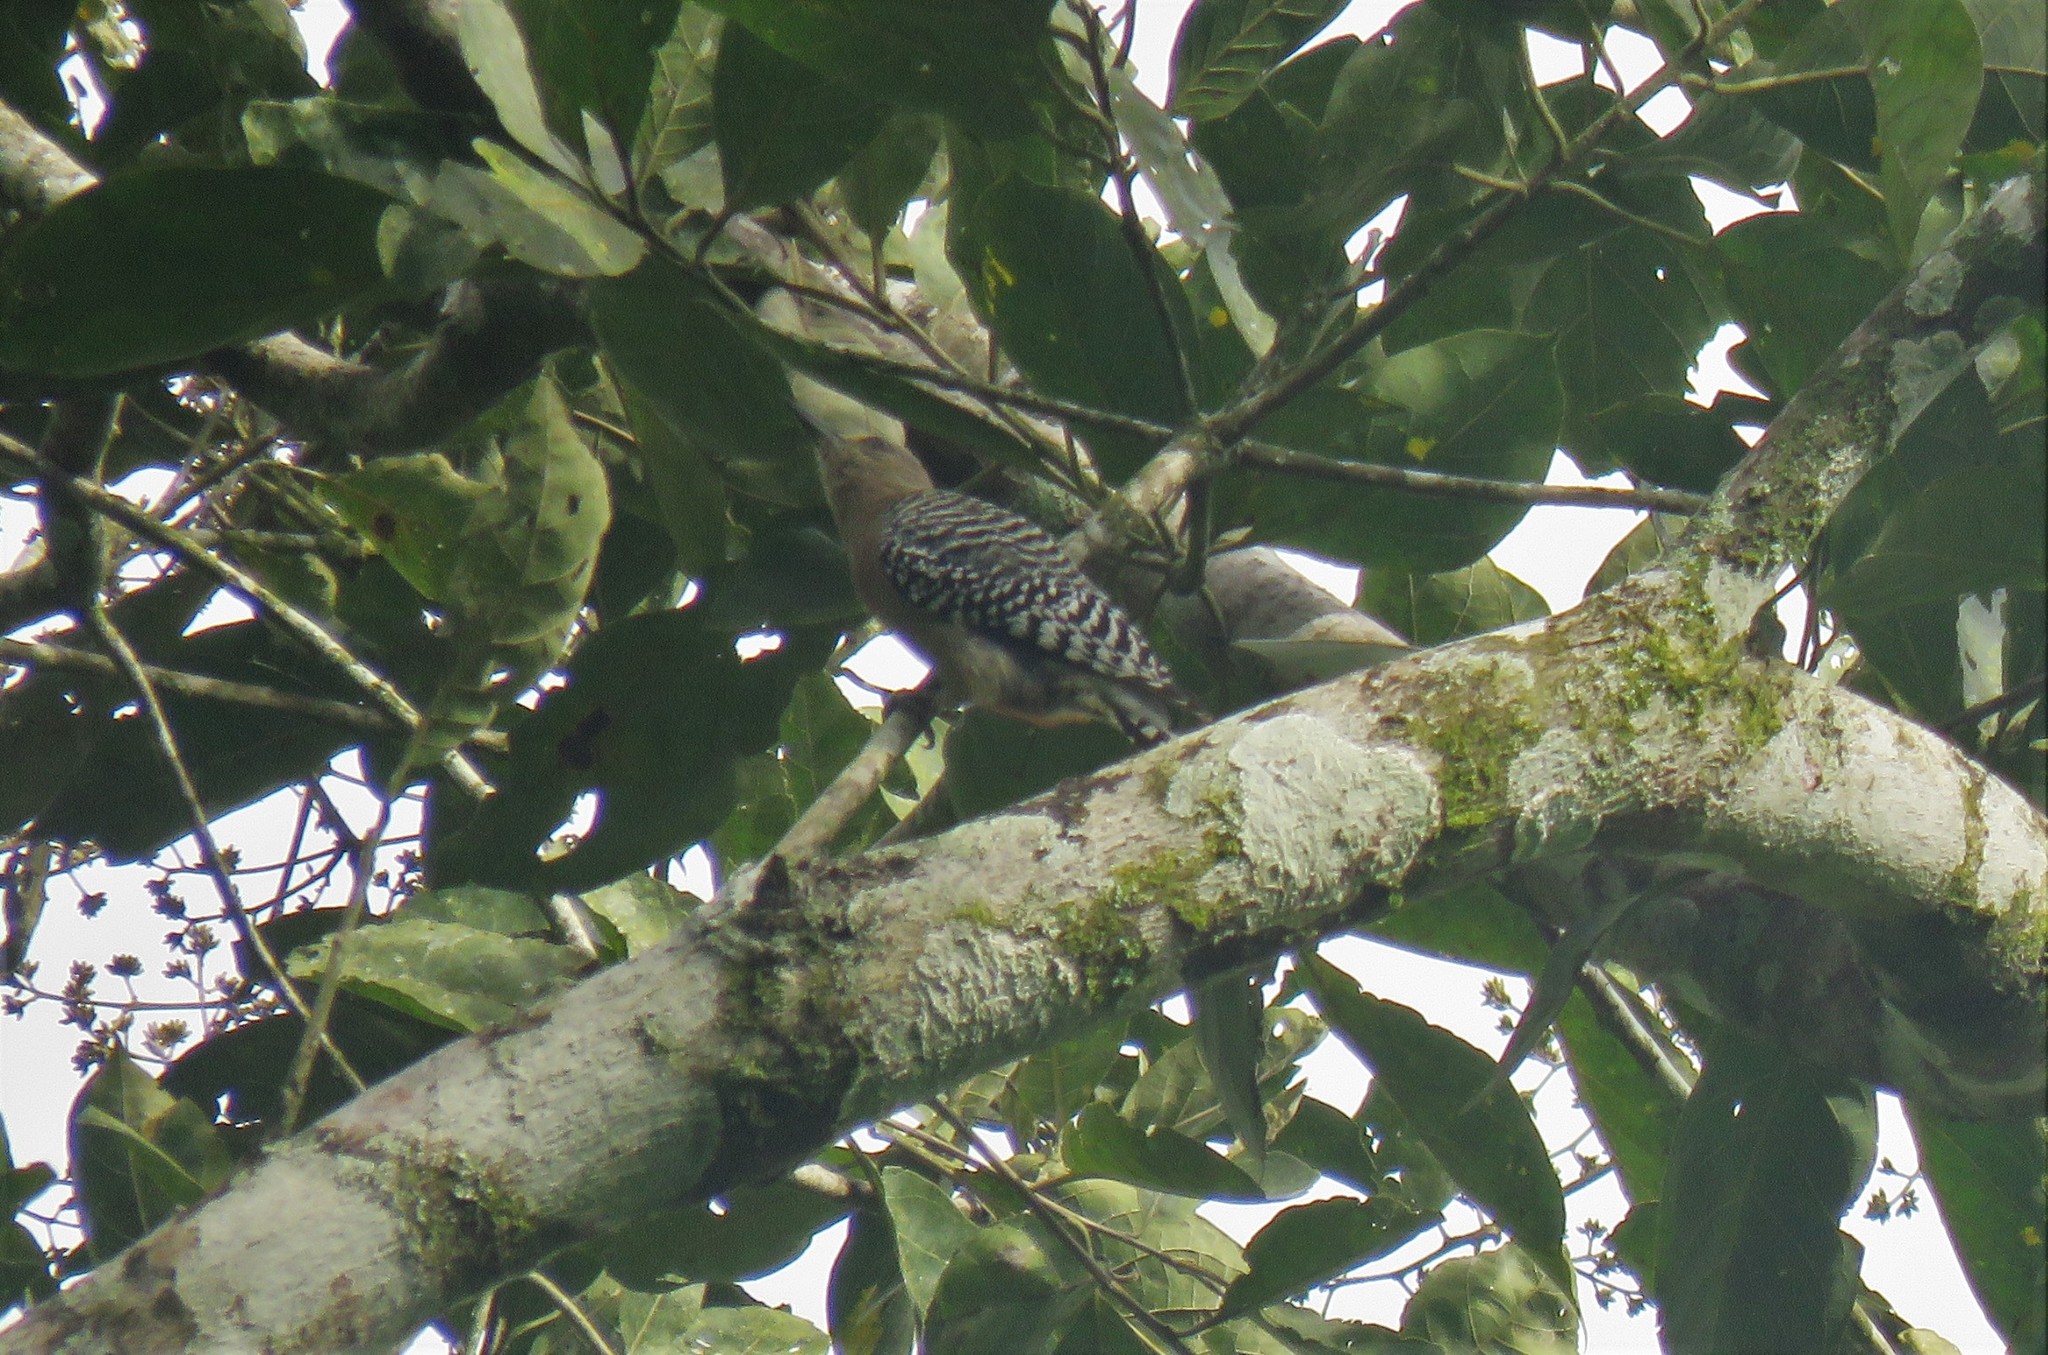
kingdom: Animalia
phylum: Chordata
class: Aves
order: Piciformes
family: Picidae
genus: Melanerpes
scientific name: Melanerpes rubricapillus
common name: Red-crowned woodpecker
